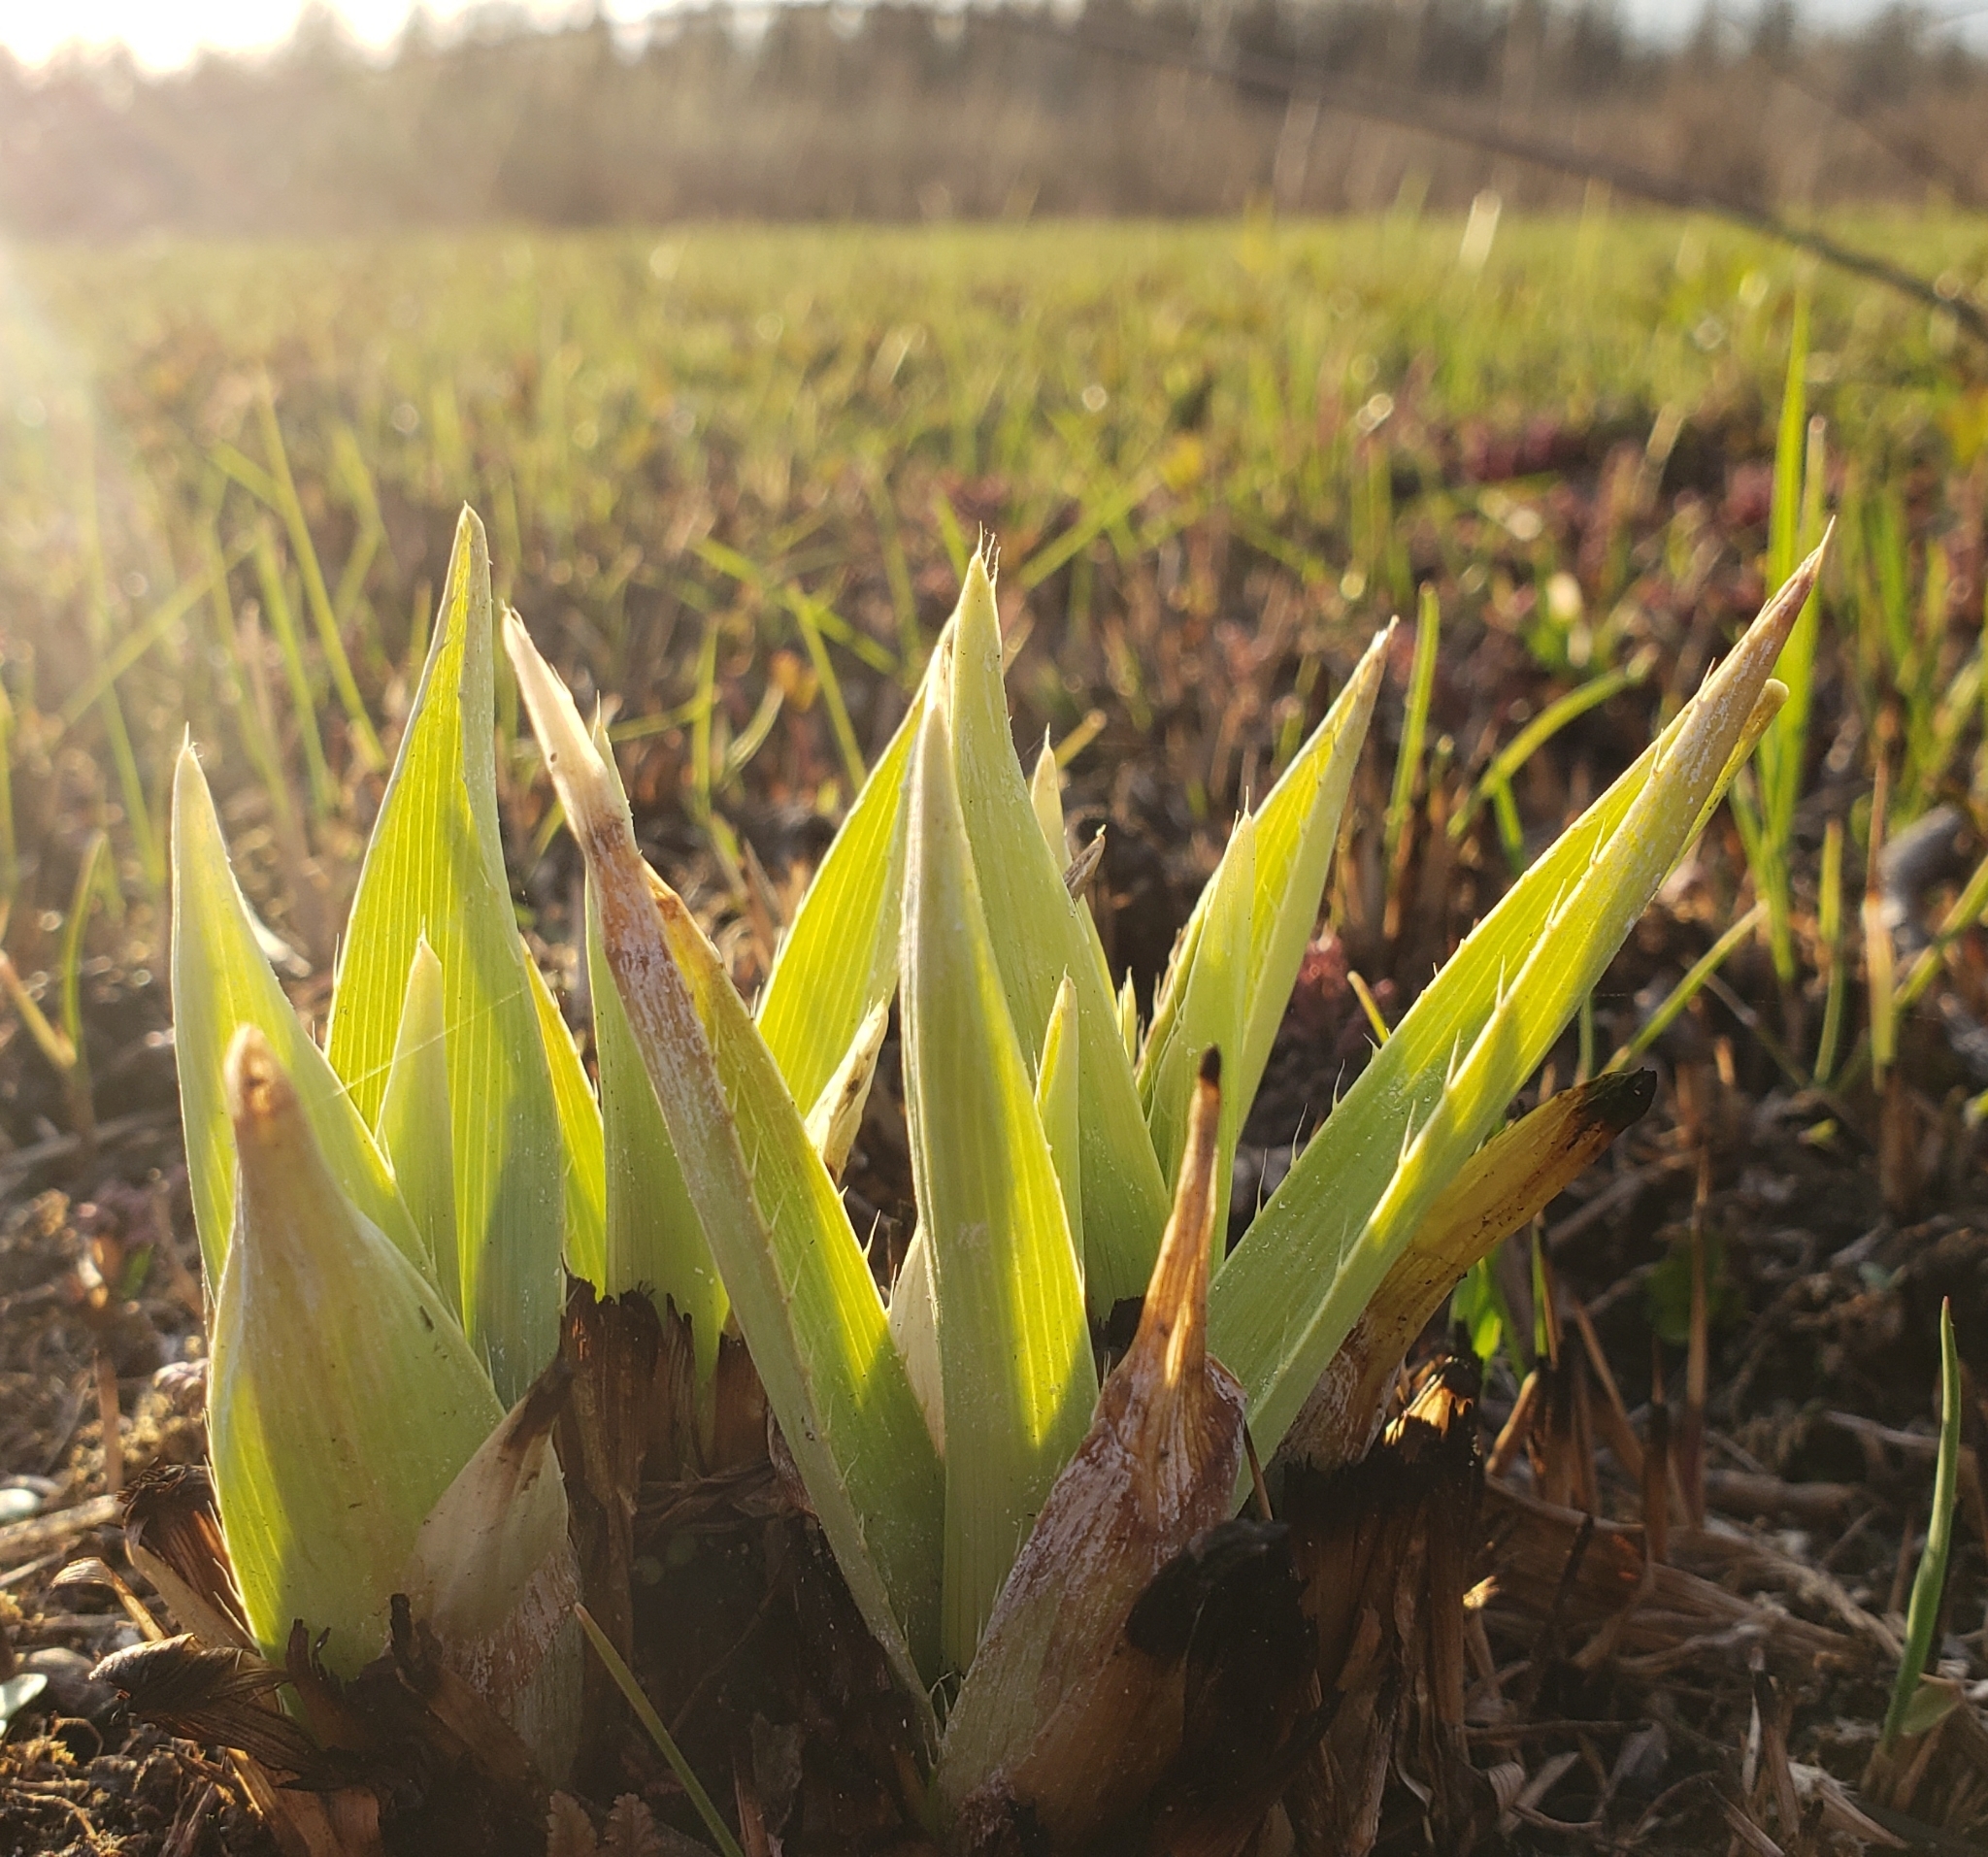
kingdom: Plantae
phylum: Tracheophyta
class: Magnoliopsida
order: Apiales
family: Apiaceae
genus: Eryngium
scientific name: Eryngium yuccifolium
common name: Button eryngo
